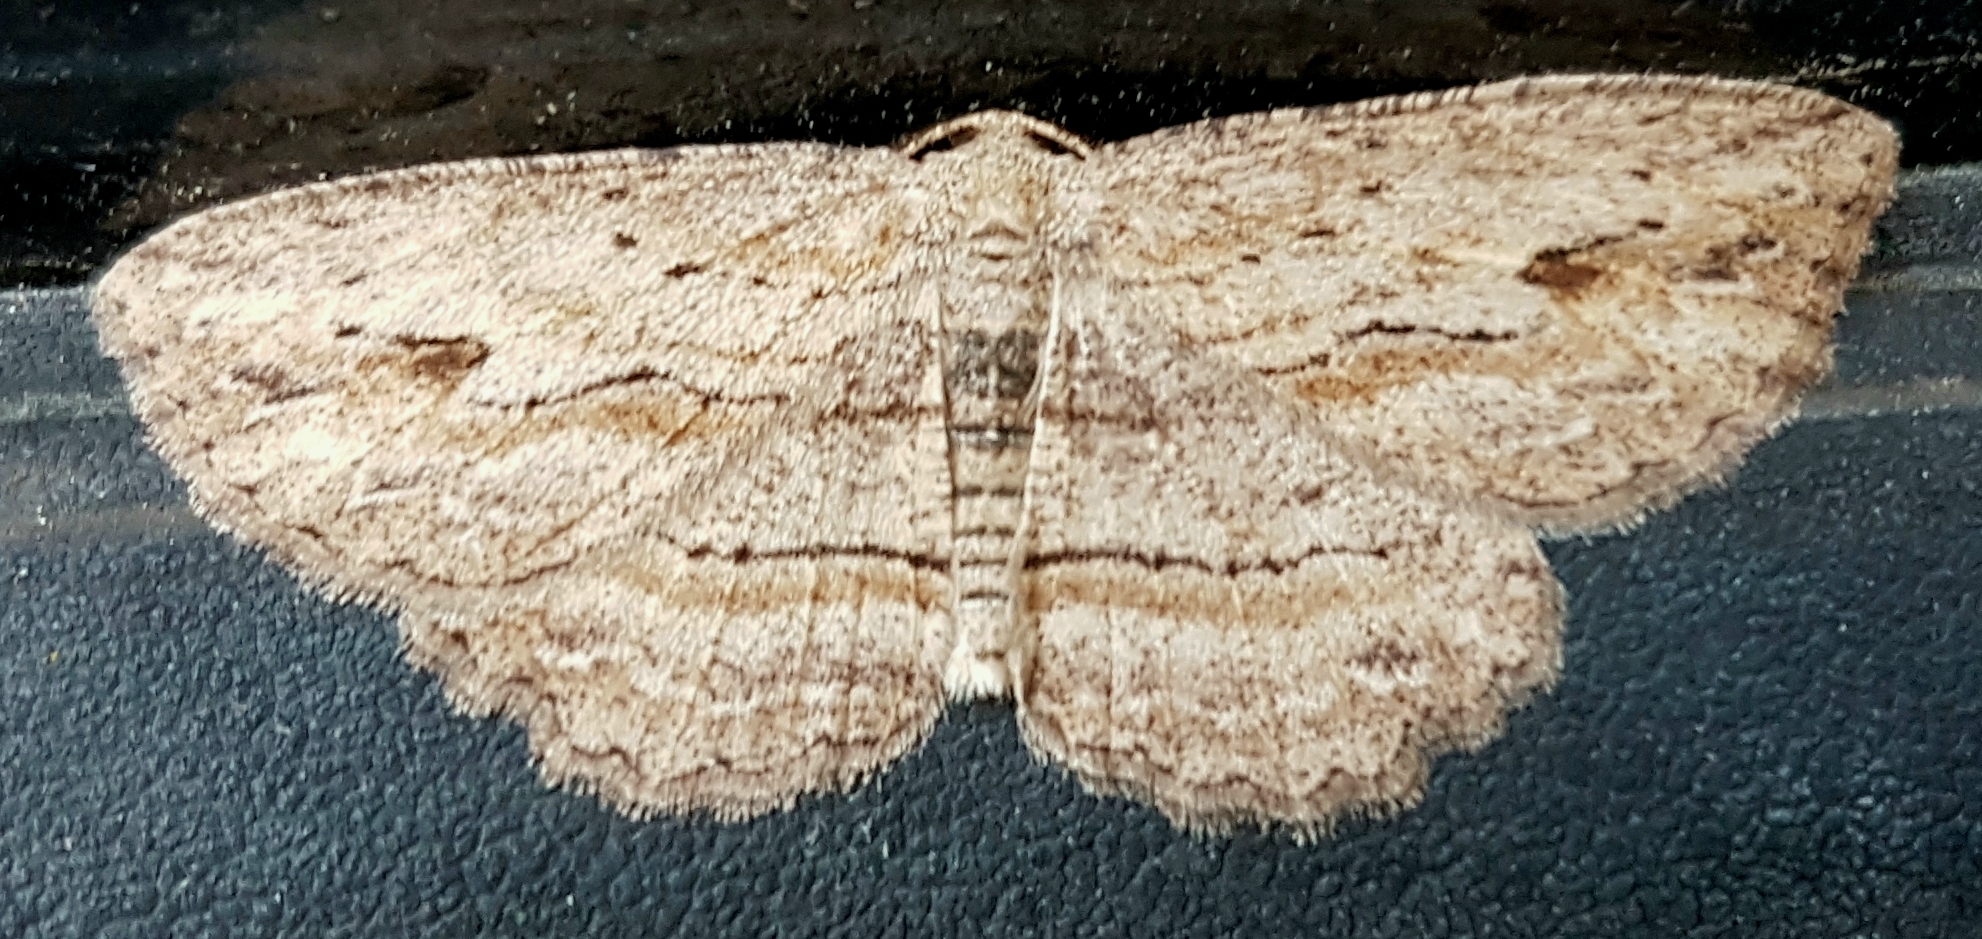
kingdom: Animalia
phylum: Arthropoda
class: Insecta
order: Lepidoptera
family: Geometridae
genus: Ectropis
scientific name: Ectropis excursaria
